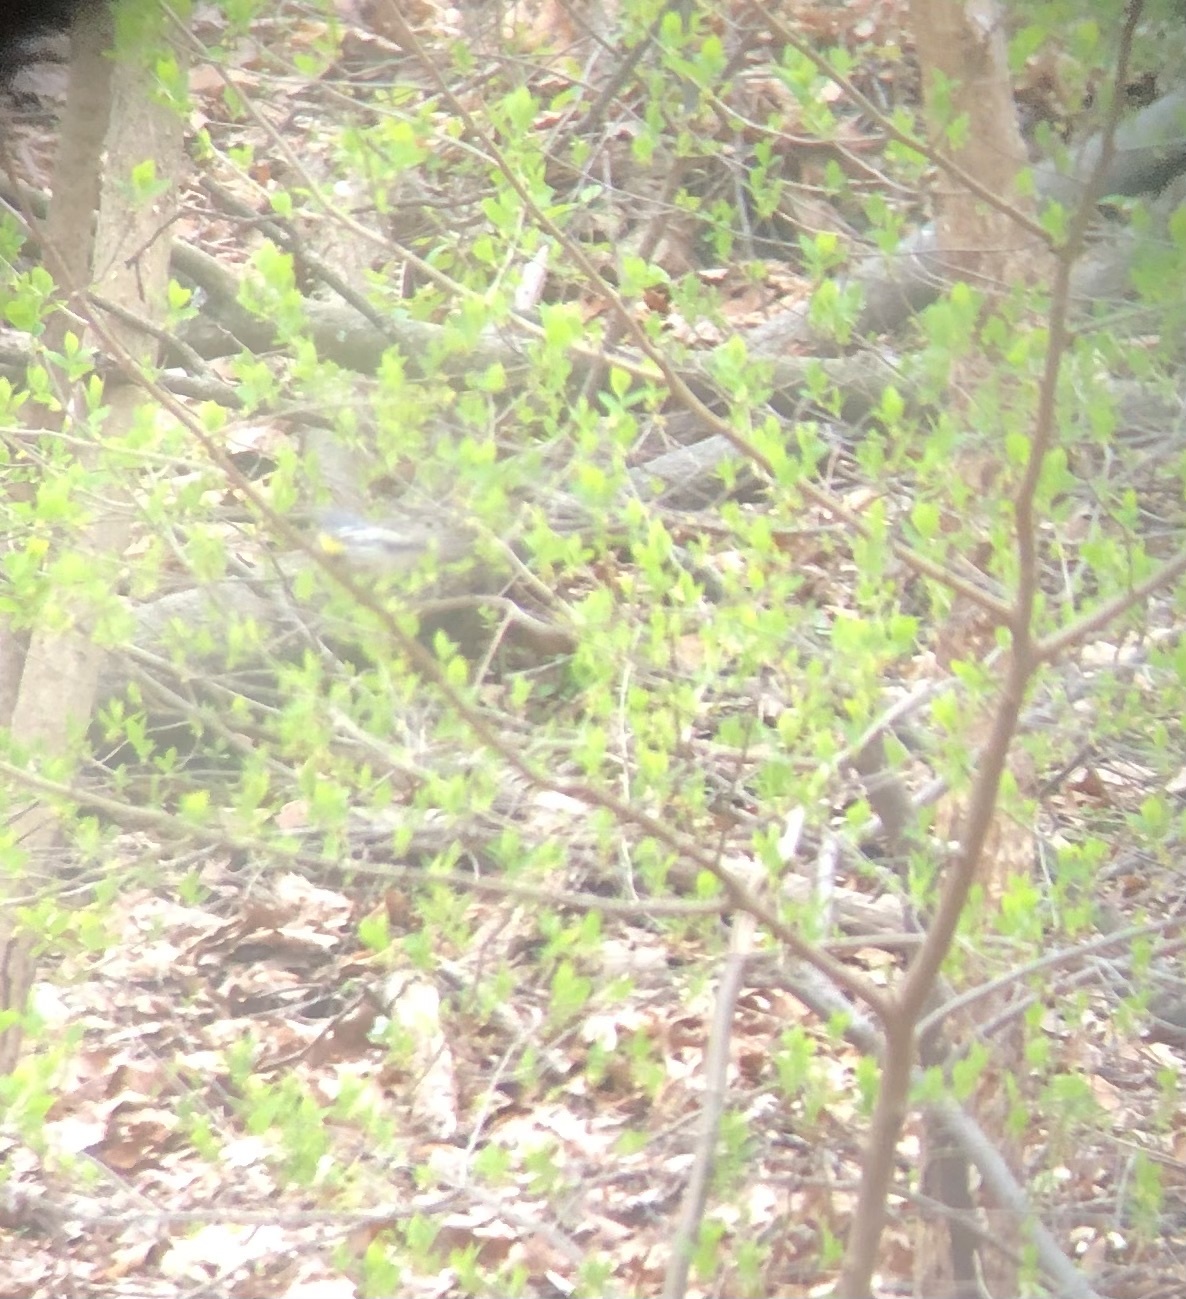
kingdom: Animalia
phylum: Chordata
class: Aves
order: Passeriformes
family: Parulidae
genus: Setophaga
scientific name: Setophaga coronata
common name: Myrtle warbler
